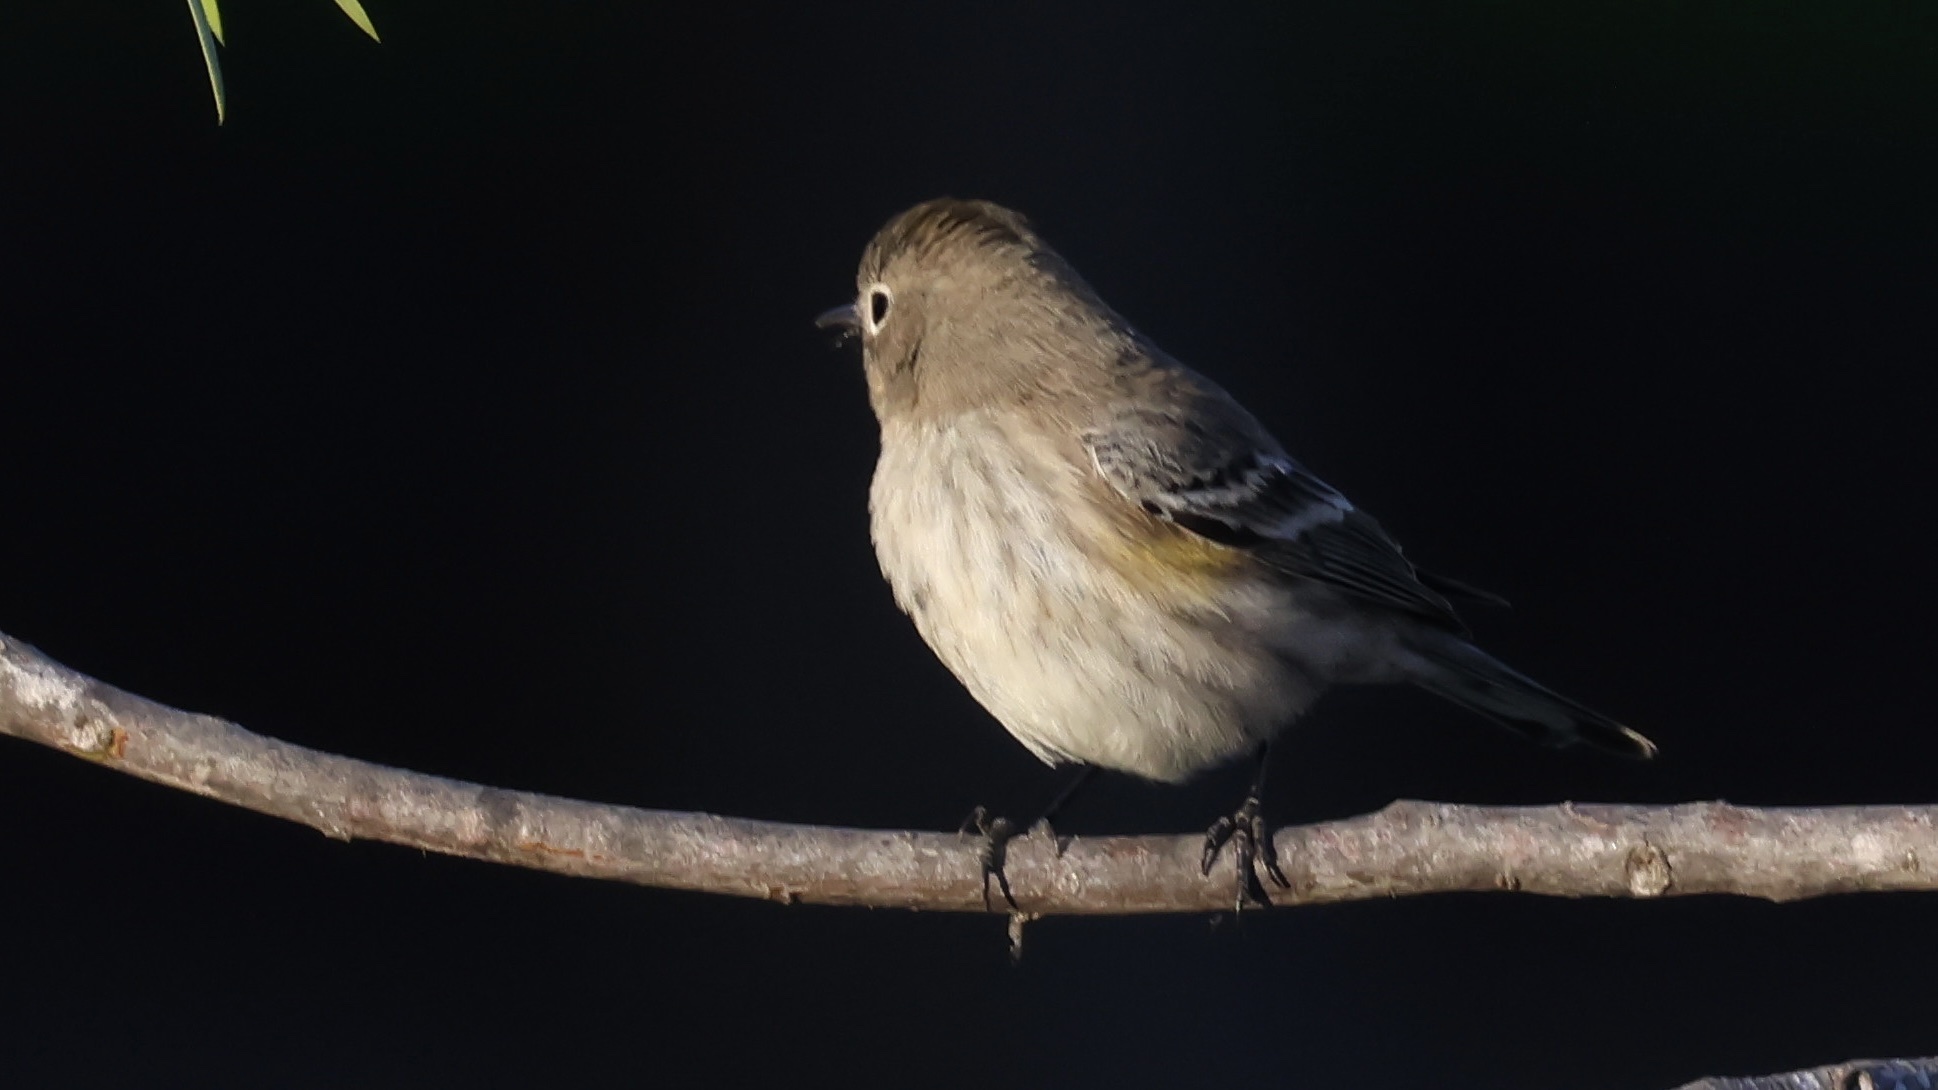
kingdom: Animalia
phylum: Chordata
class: Aves
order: Passeriformes
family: Parulidae
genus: Setophaga
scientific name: Setophaga coronata
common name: Myrtle warbler
